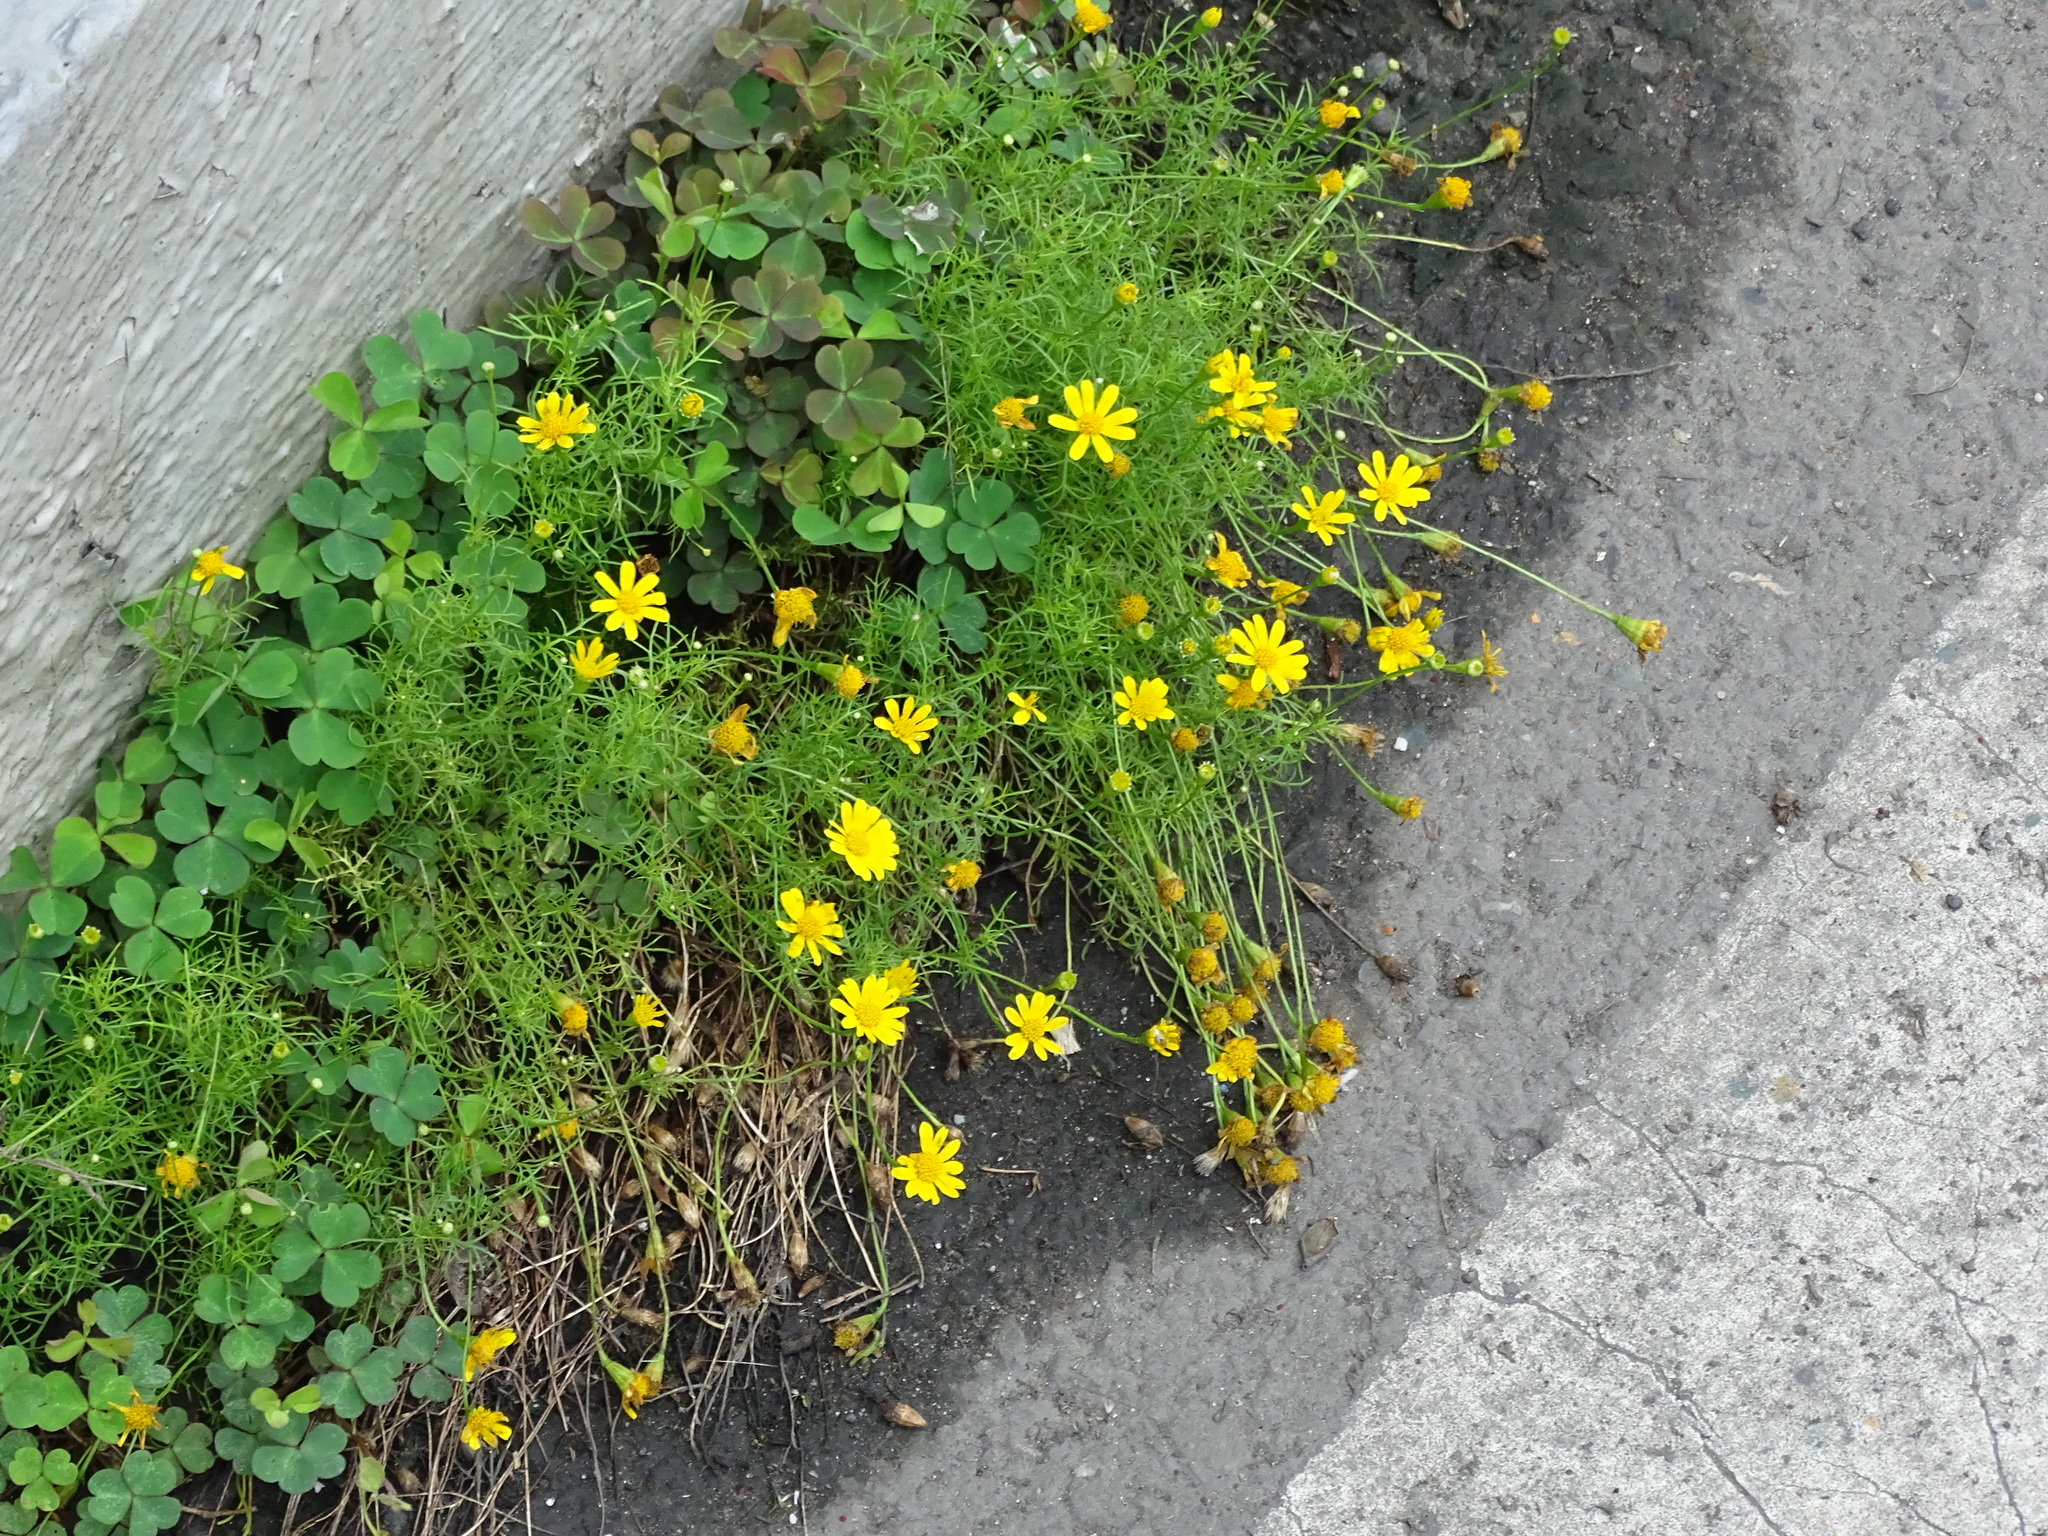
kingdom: Plantae
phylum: Tracheophyta
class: Magnoliopsida
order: Asterales
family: Asteraceae
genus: Thymophylla
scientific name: Thymophylla tenuiloba
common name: Dahlberg's daisy
